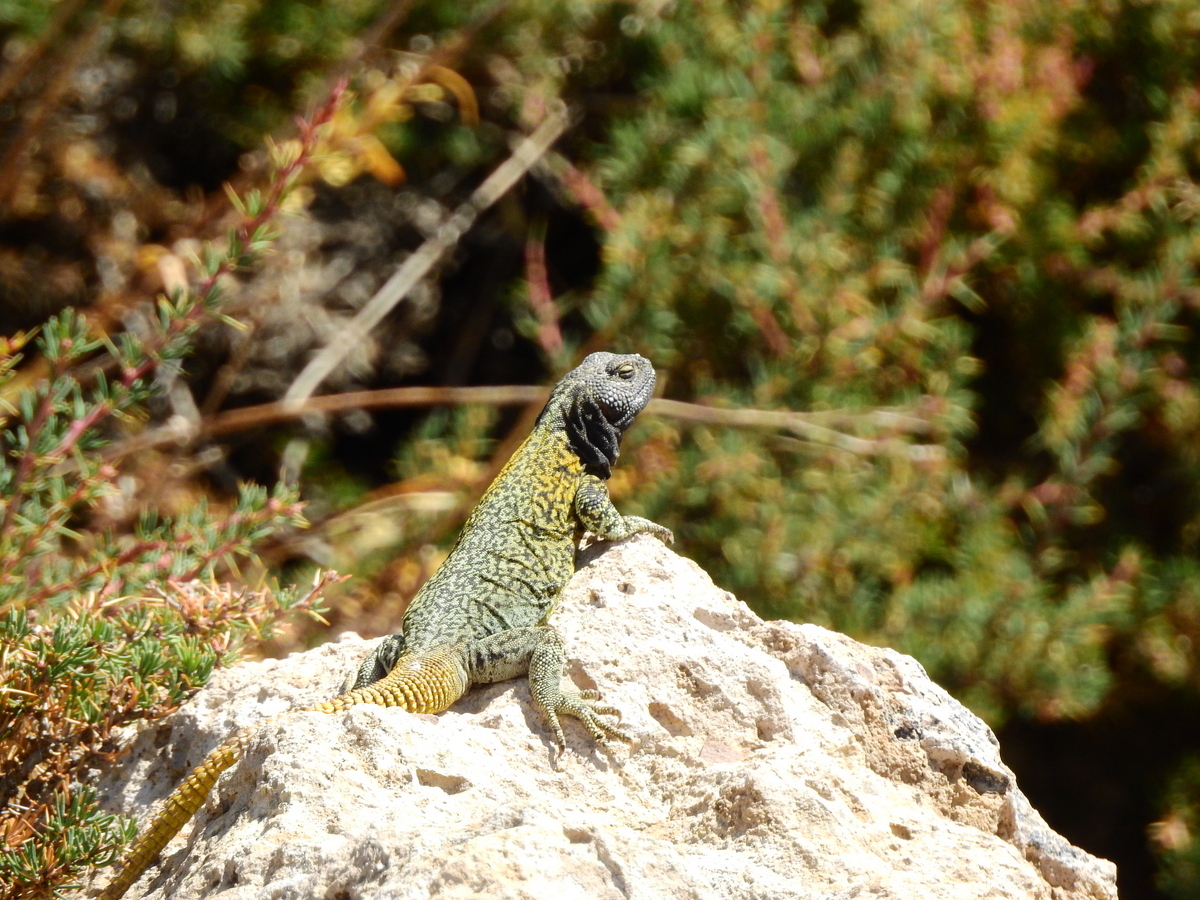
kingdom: Animalia
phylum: Chordata
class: Squamata
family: Liolaemidae
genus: Phymaturus
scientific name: Phymaturus verdugo
